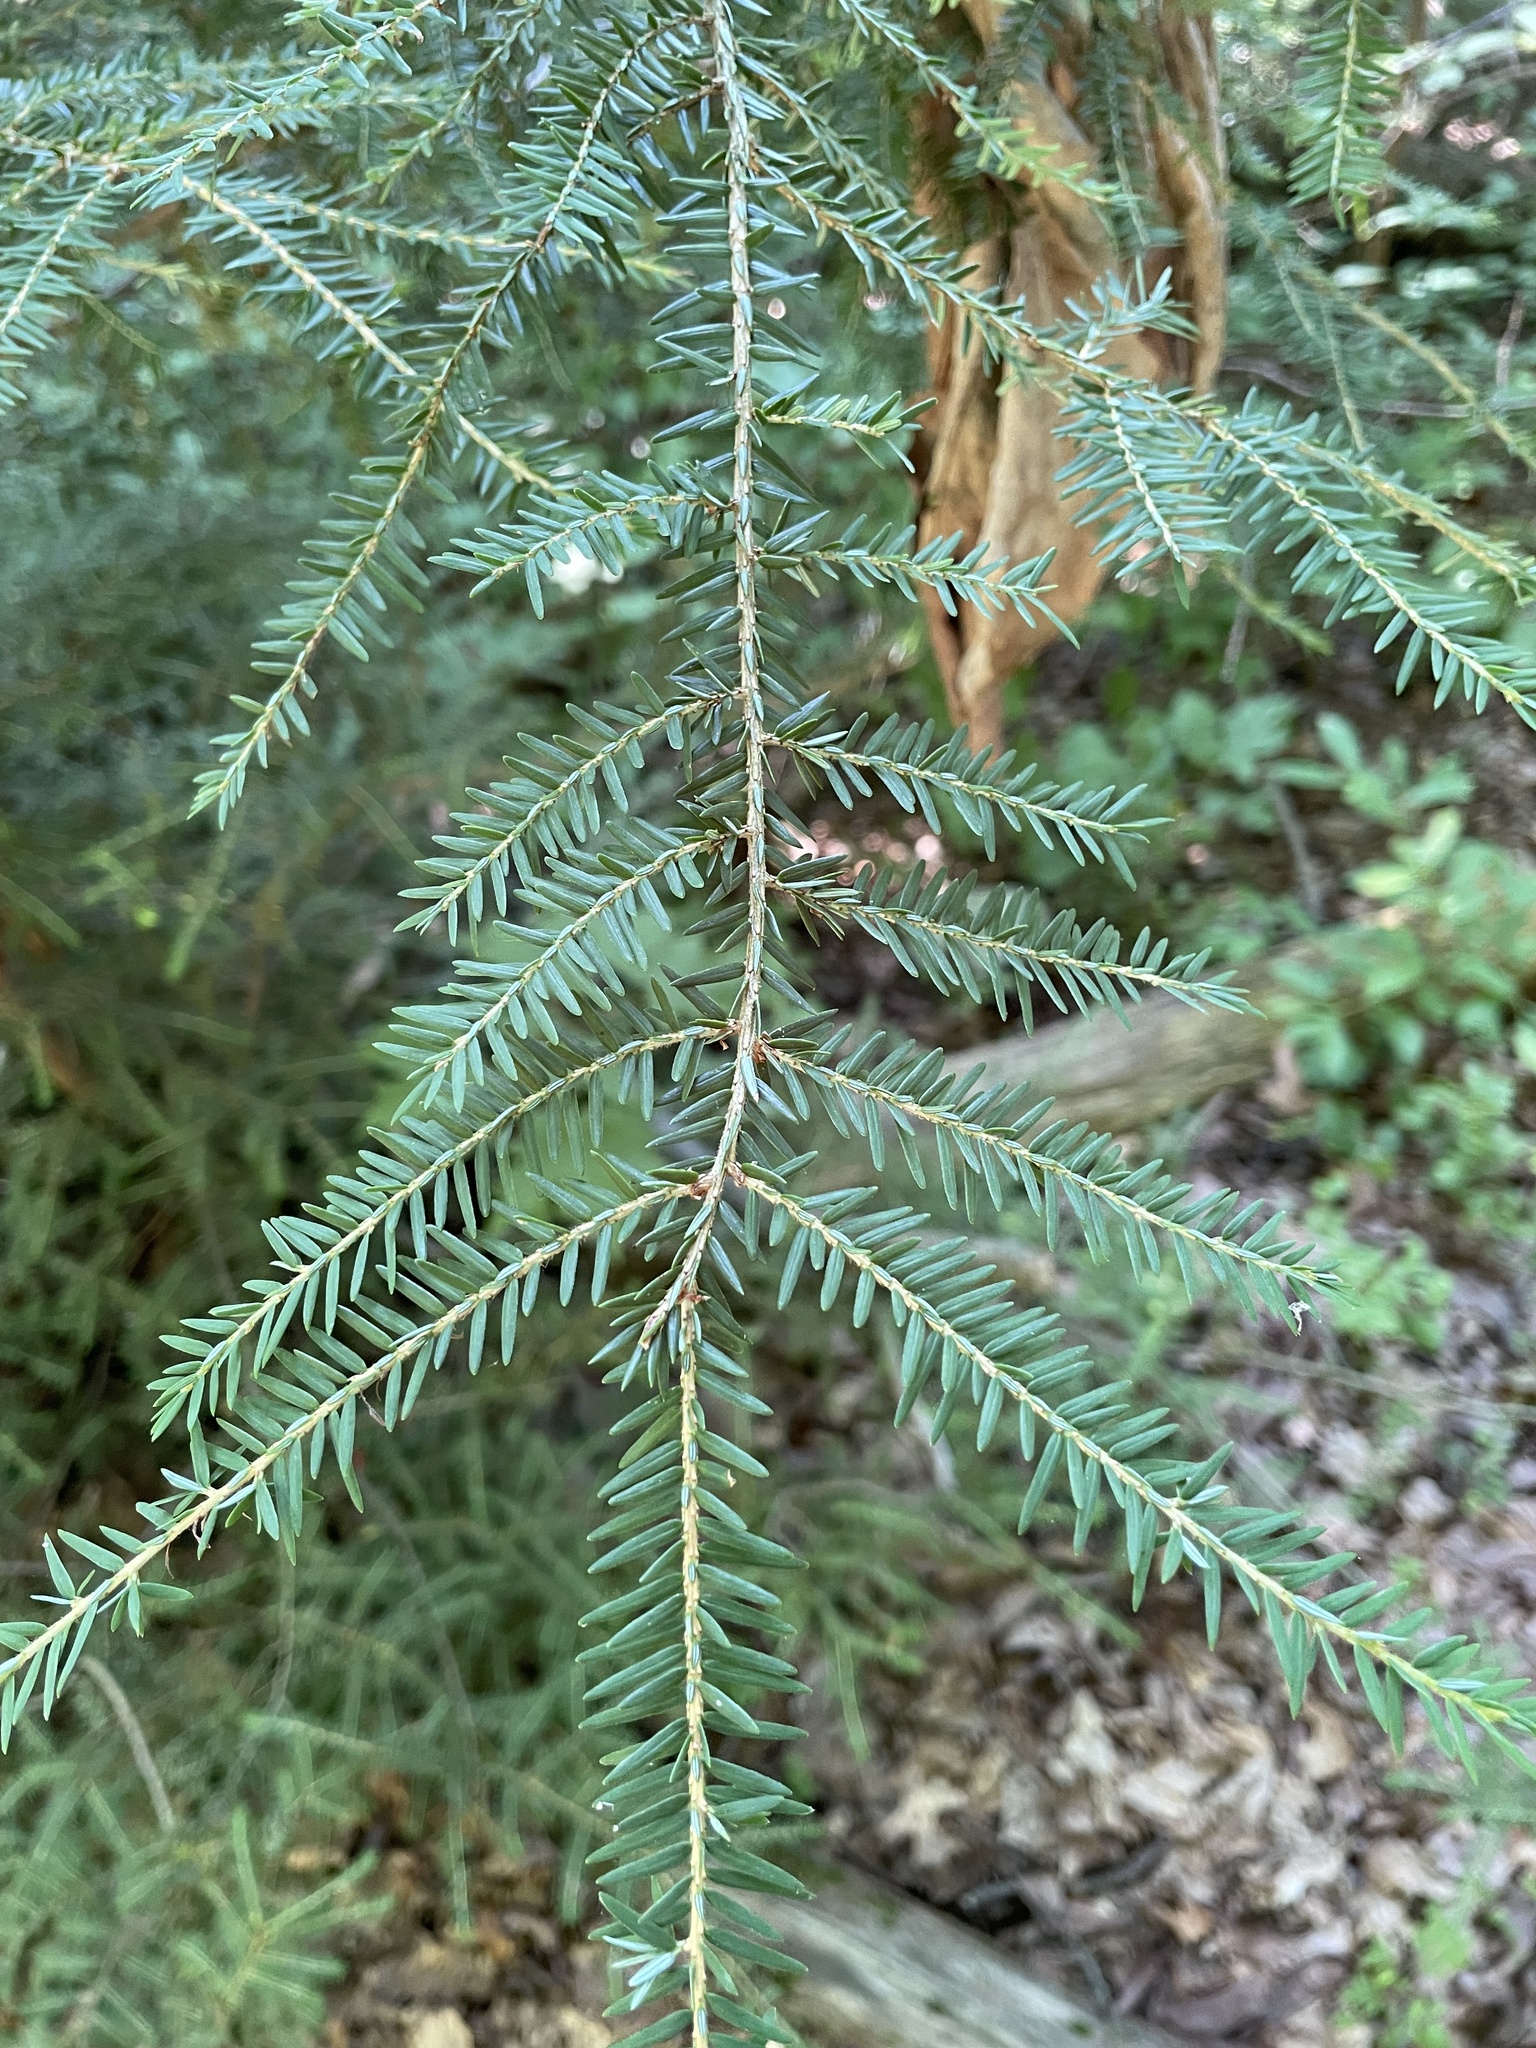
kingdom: Plantae
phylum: Tracheophyta
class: Pinopsida
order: Pinales
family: Pinaceae
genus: Tsuga
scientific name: Tsuga canadensis
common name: Eastern hemlock
